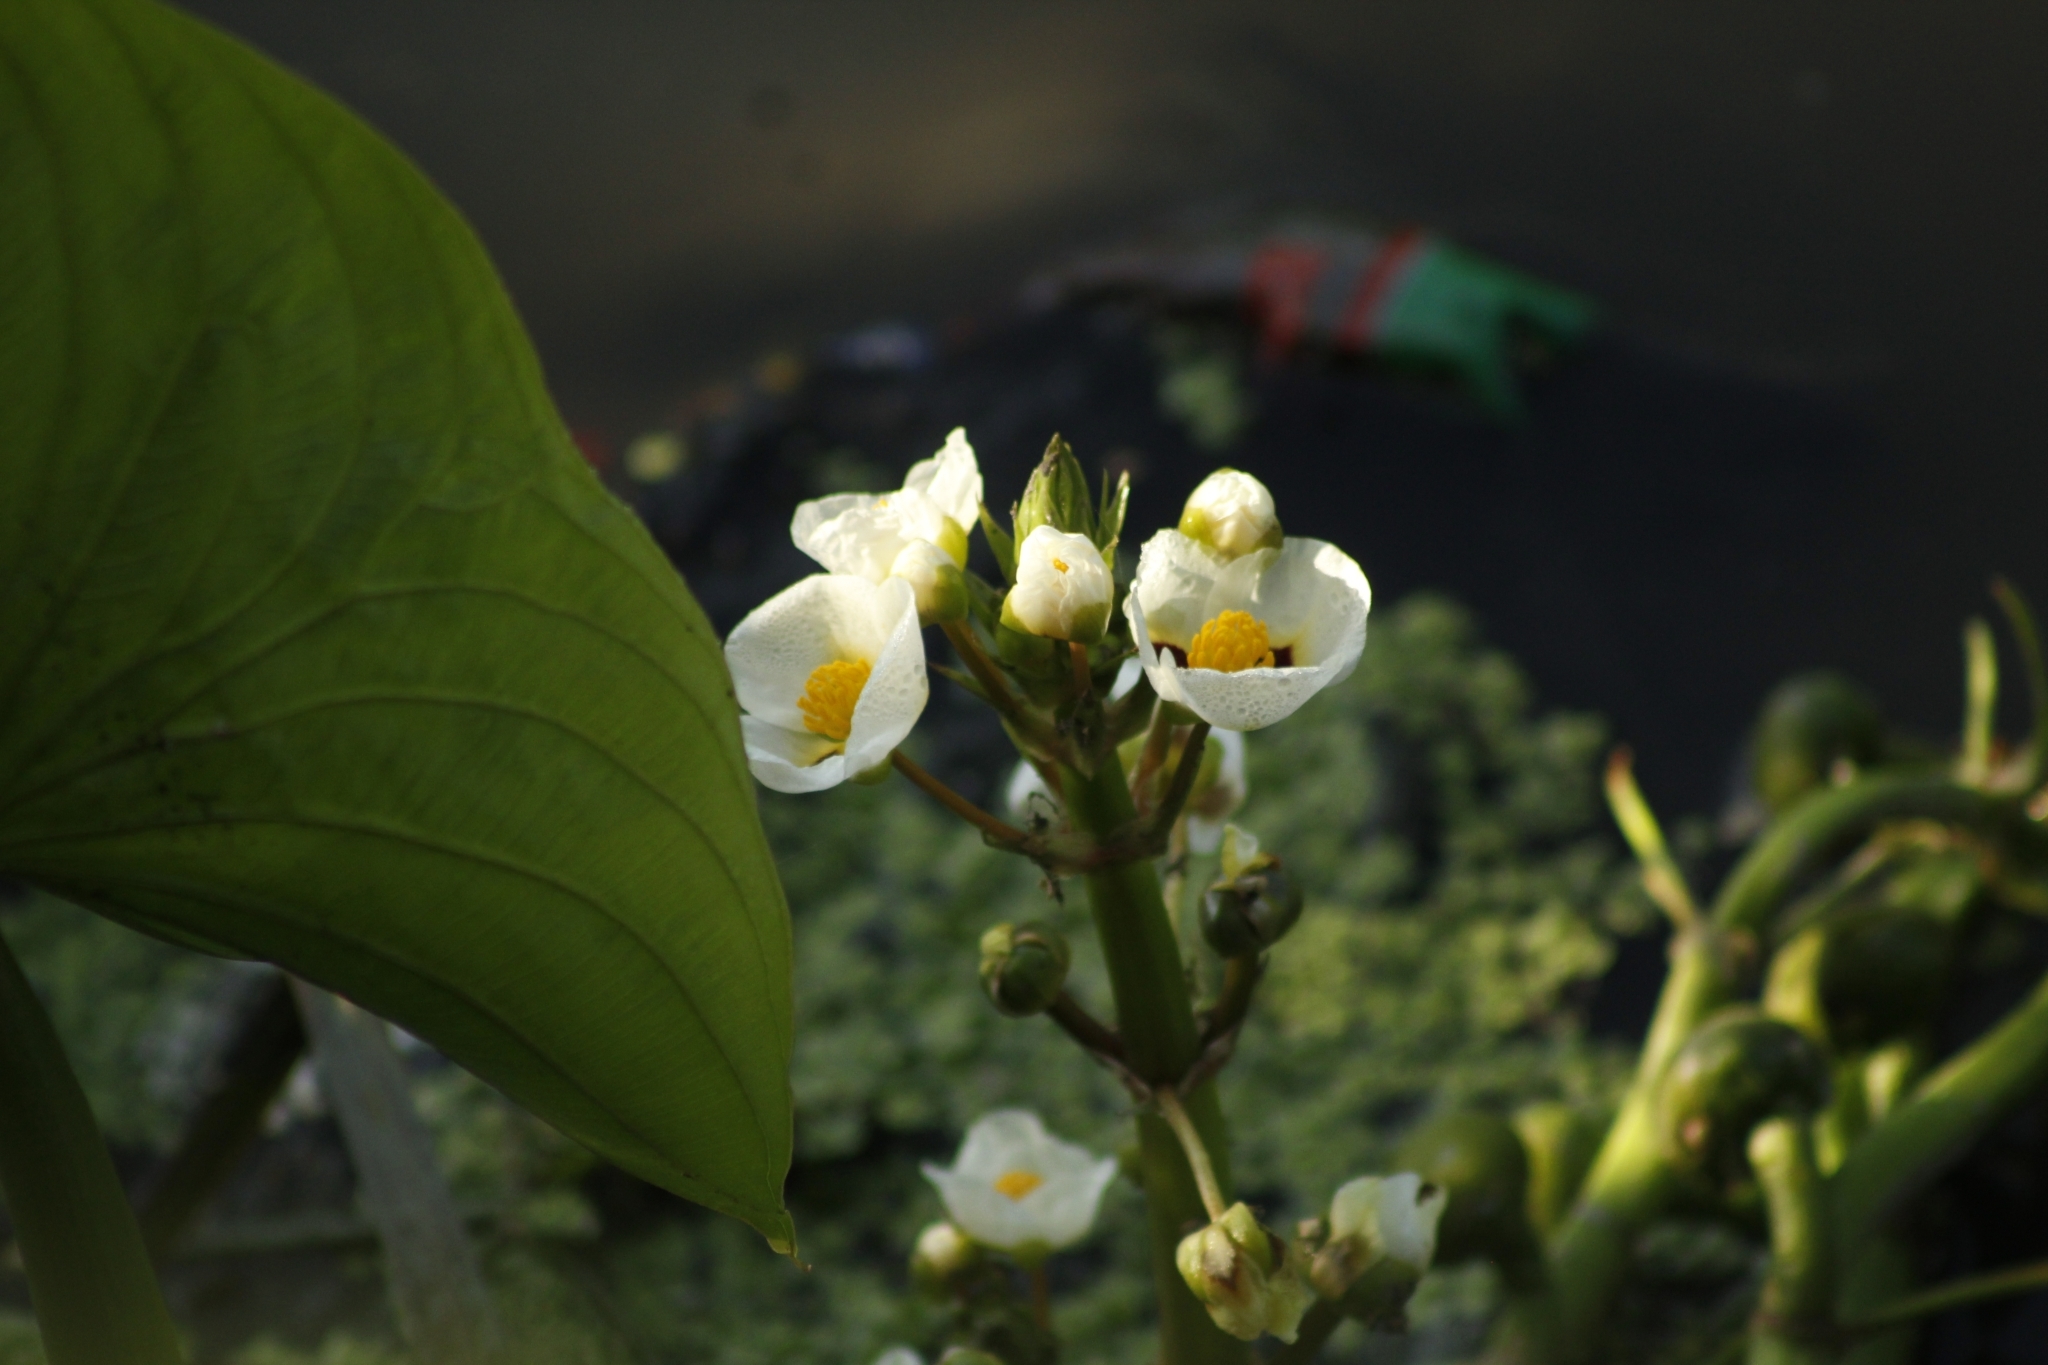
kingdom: Plantae
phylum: Tracheophyta
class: Liliopsida
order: Alismatales
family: Alismataceae
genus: Sagittaria
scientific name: Sagittaria montevidensis
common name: Giant arrowhead
